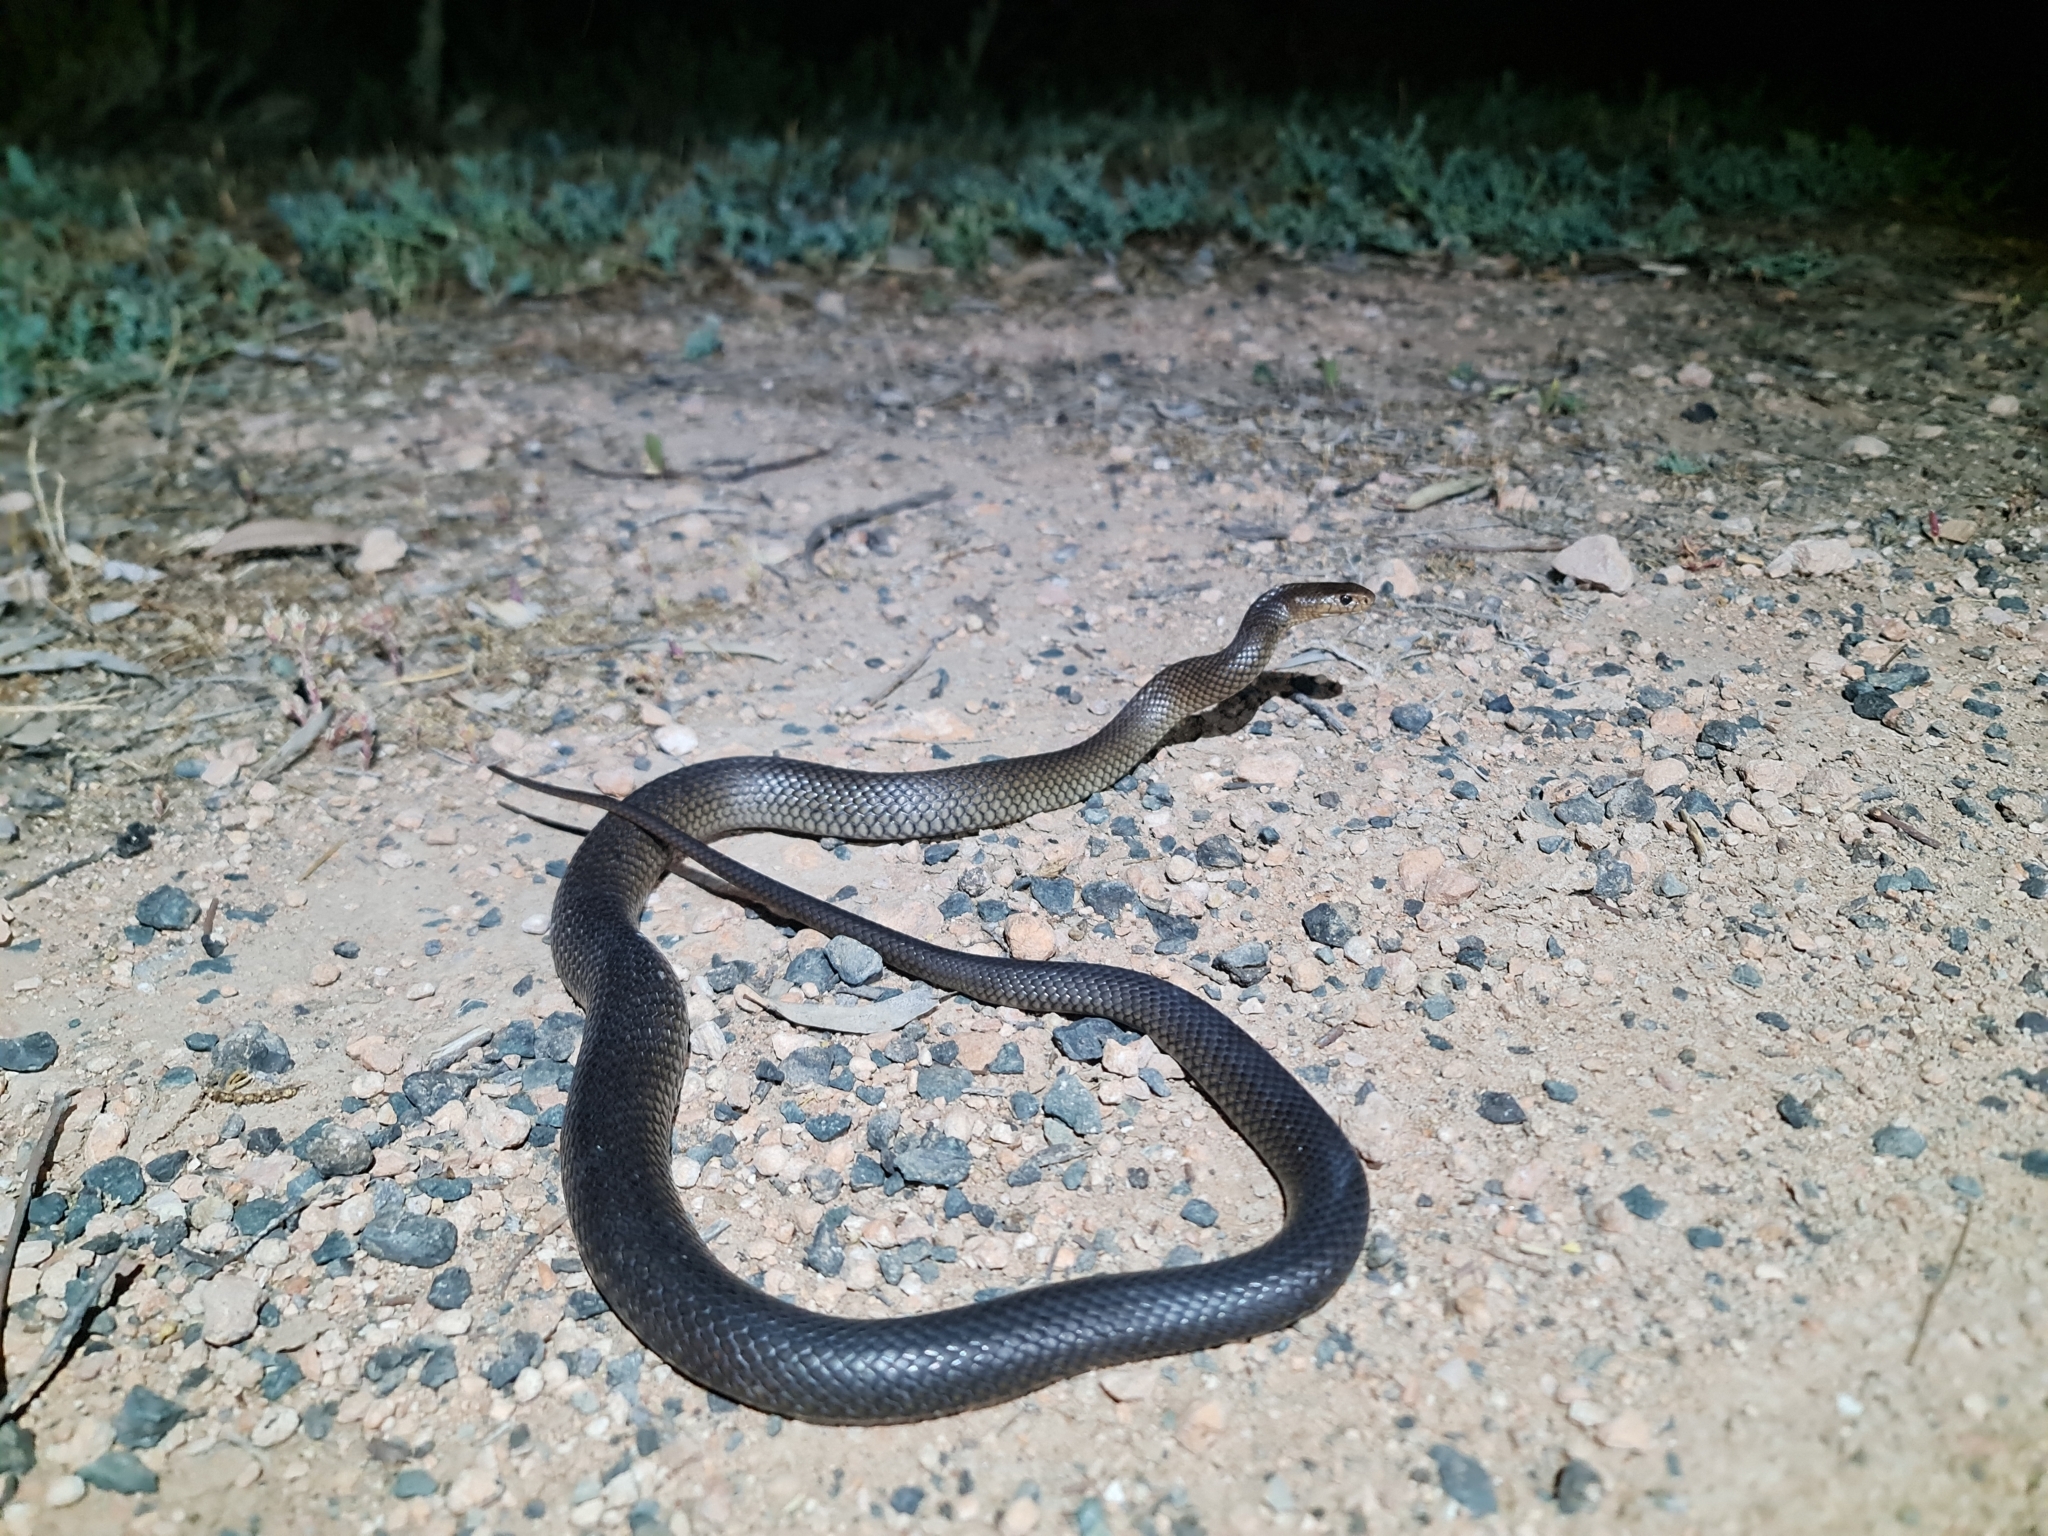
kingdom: Animalia
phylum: Chordata
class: Squamata
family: Elapidae
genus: Pseudonaja
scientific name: Pseudonaja textilis
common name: Eastern brown snake
